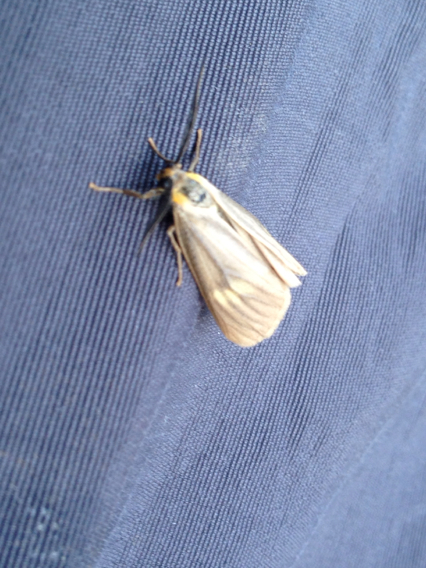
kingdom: Animalia
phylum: Arthropoda
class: Insecta
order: Lepidoptera
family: Notodontidae
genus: Phryganidia
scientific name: Phryganidia californica
